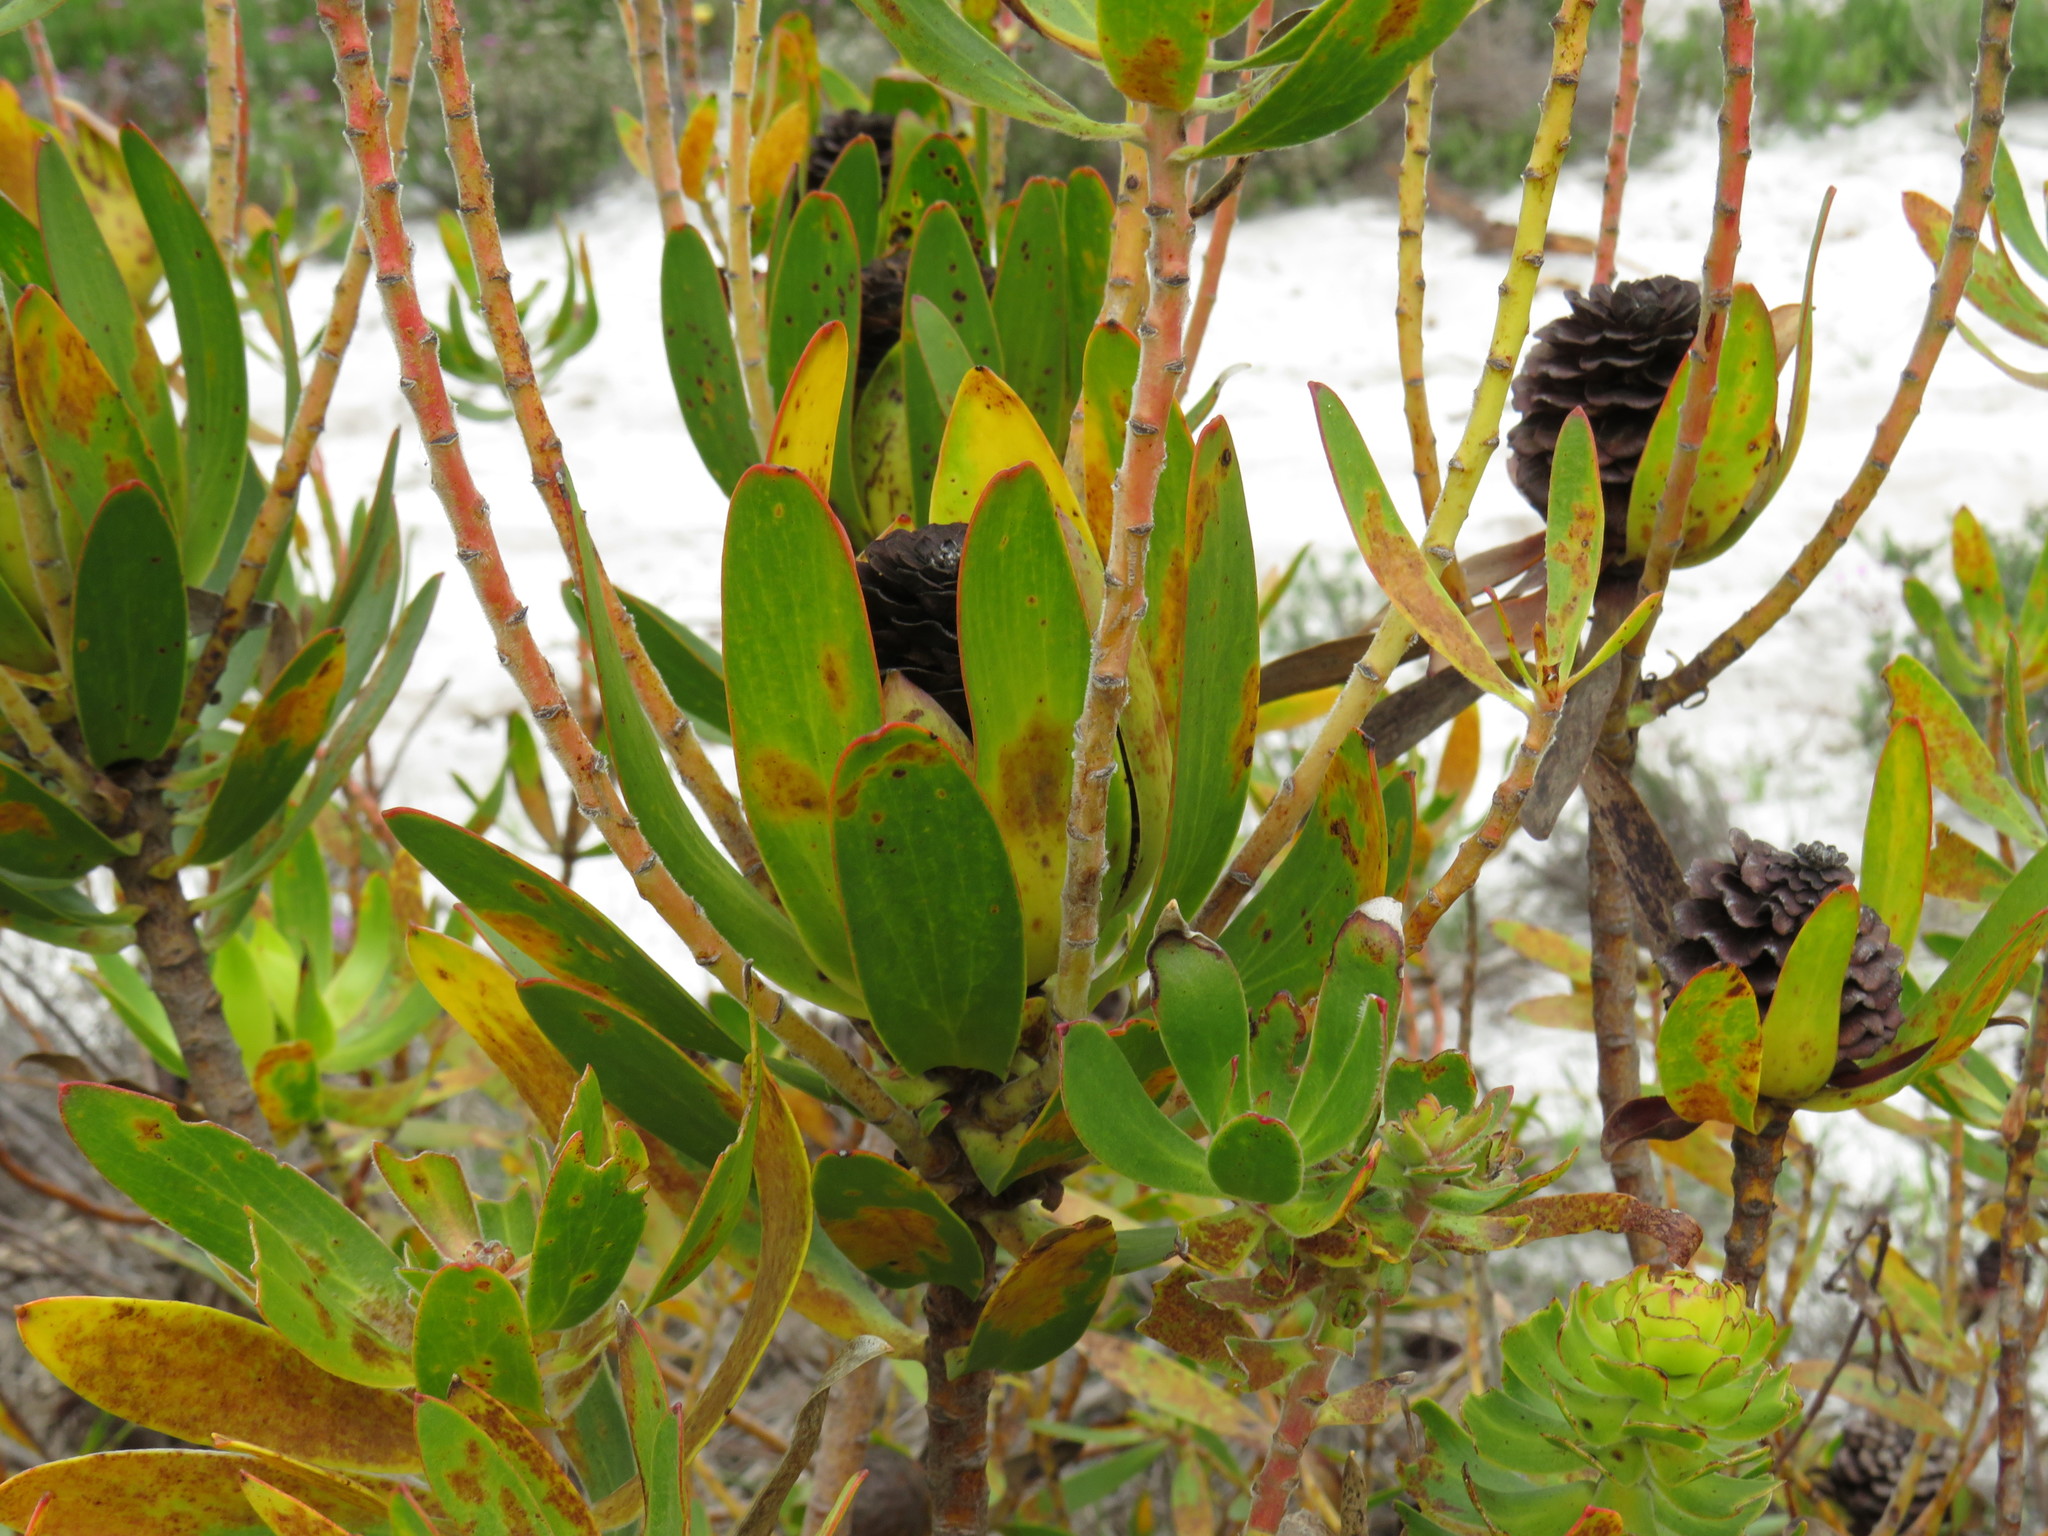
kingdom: Plantae
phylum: Tracheophyta
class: Magnoliopsida
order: Proteales
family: Proteaceae
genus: Leucadendron
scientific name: Leucadendron laureolum
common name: Golden sunshinebush
